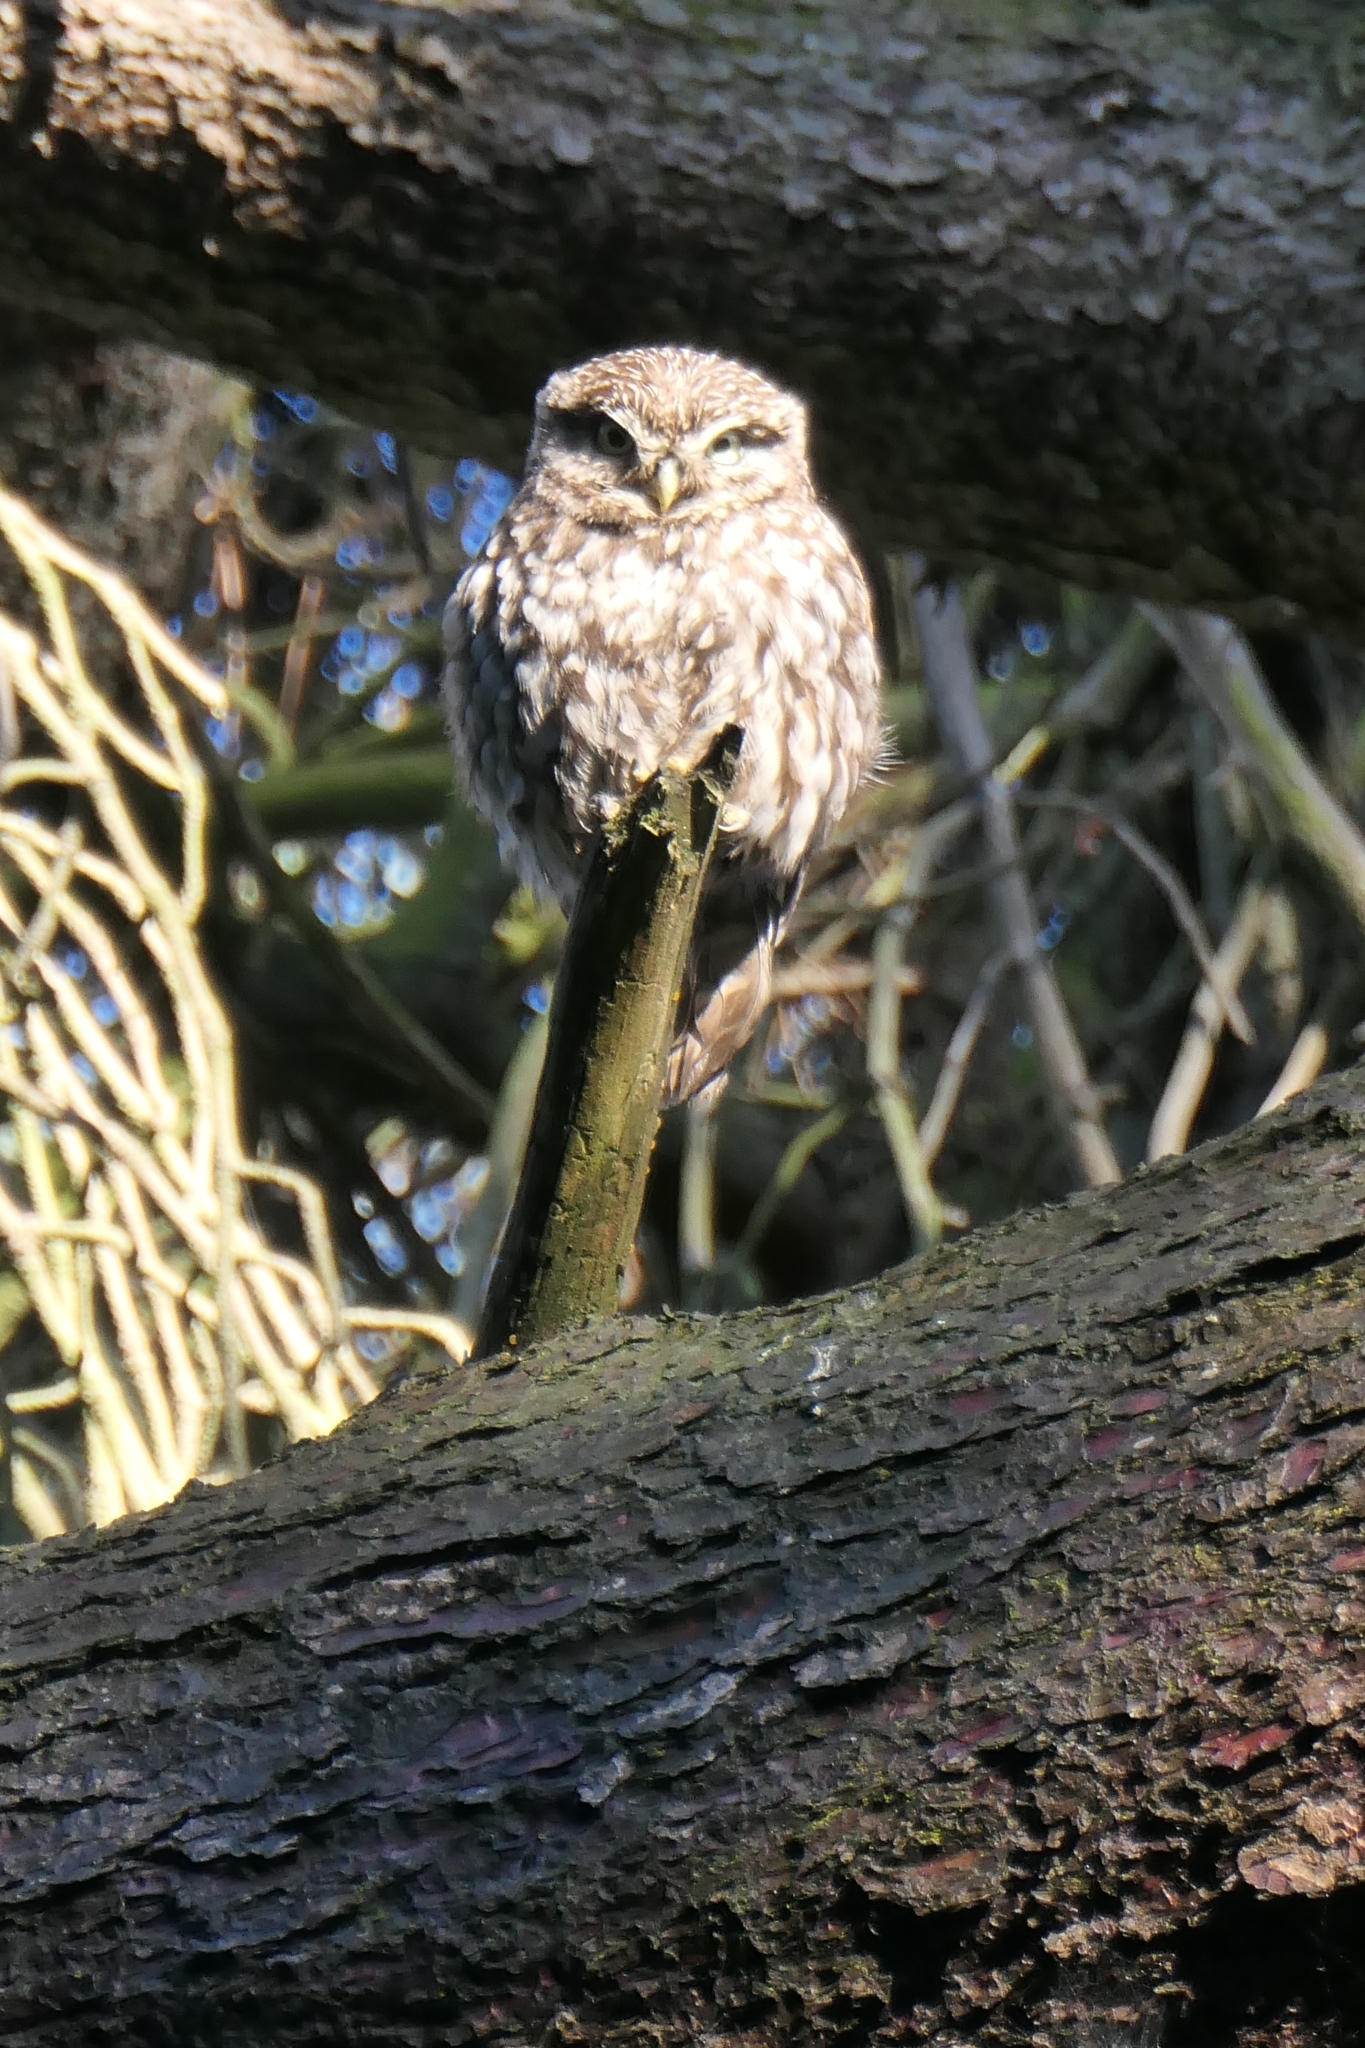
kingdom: Animalia
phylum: Chordata
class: Aves
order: Strigiformes
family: Strigidae
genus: Athene
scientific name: Athene noctua
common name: Little owl
